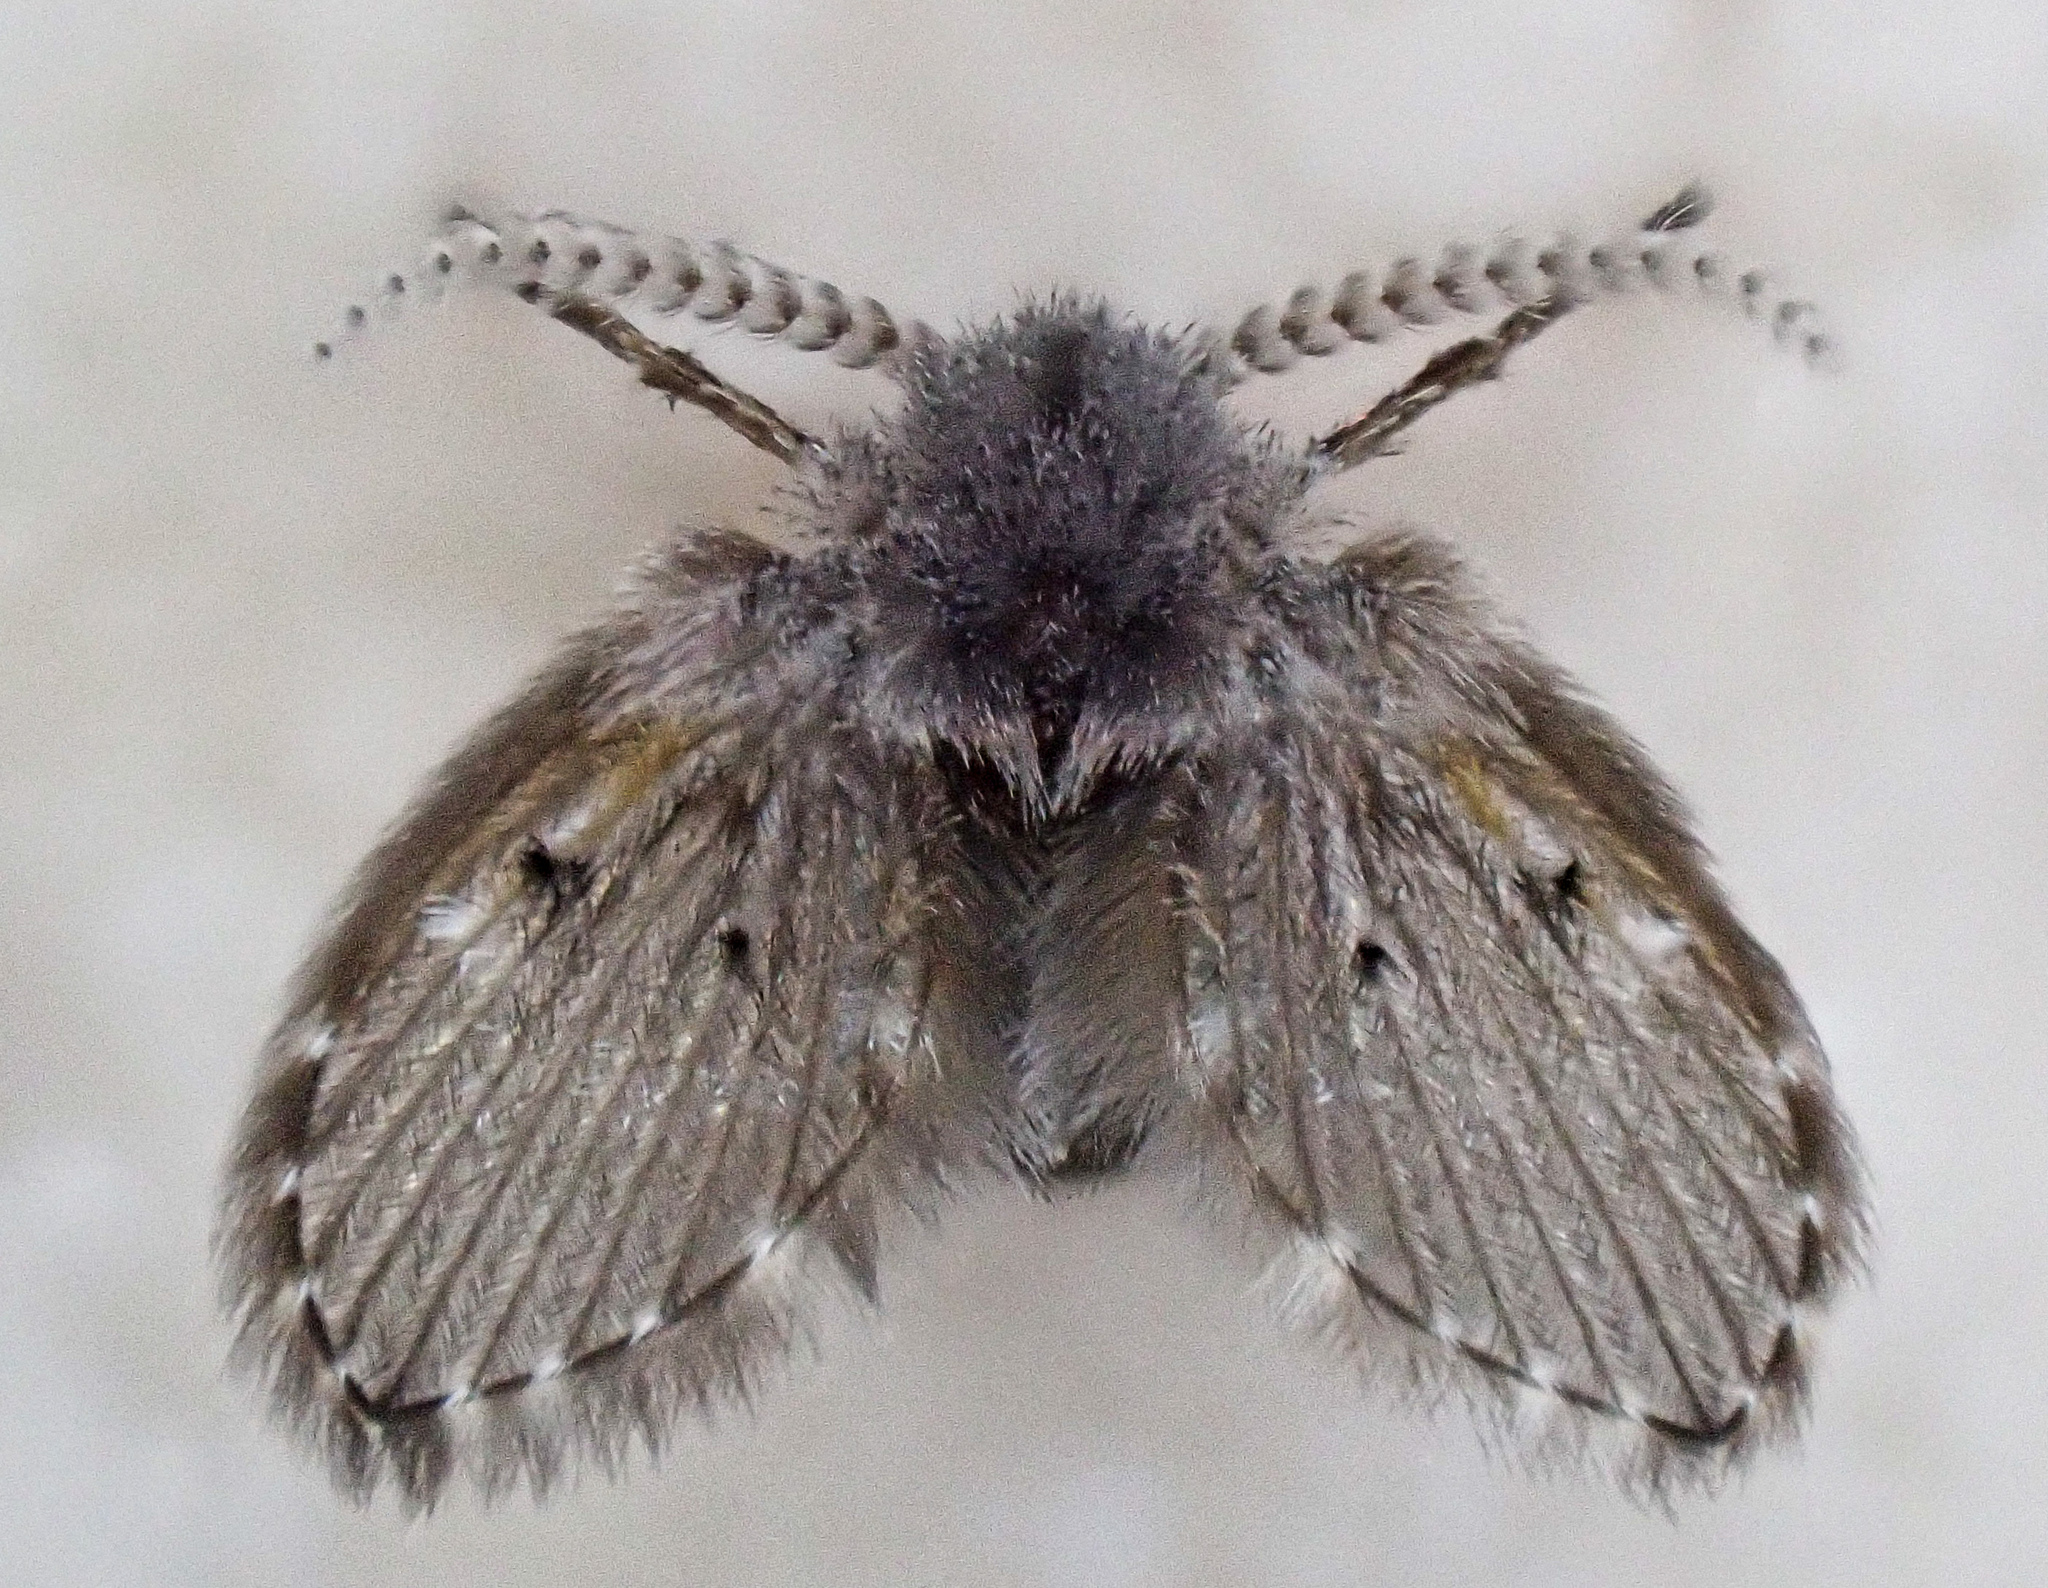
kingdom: Animalia
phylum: Arthropoda
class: Insecta
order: Diptera
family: Psychodidae
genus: Clogmia
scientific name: Clogmia albipunctatus
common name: White-spotted moth fly
